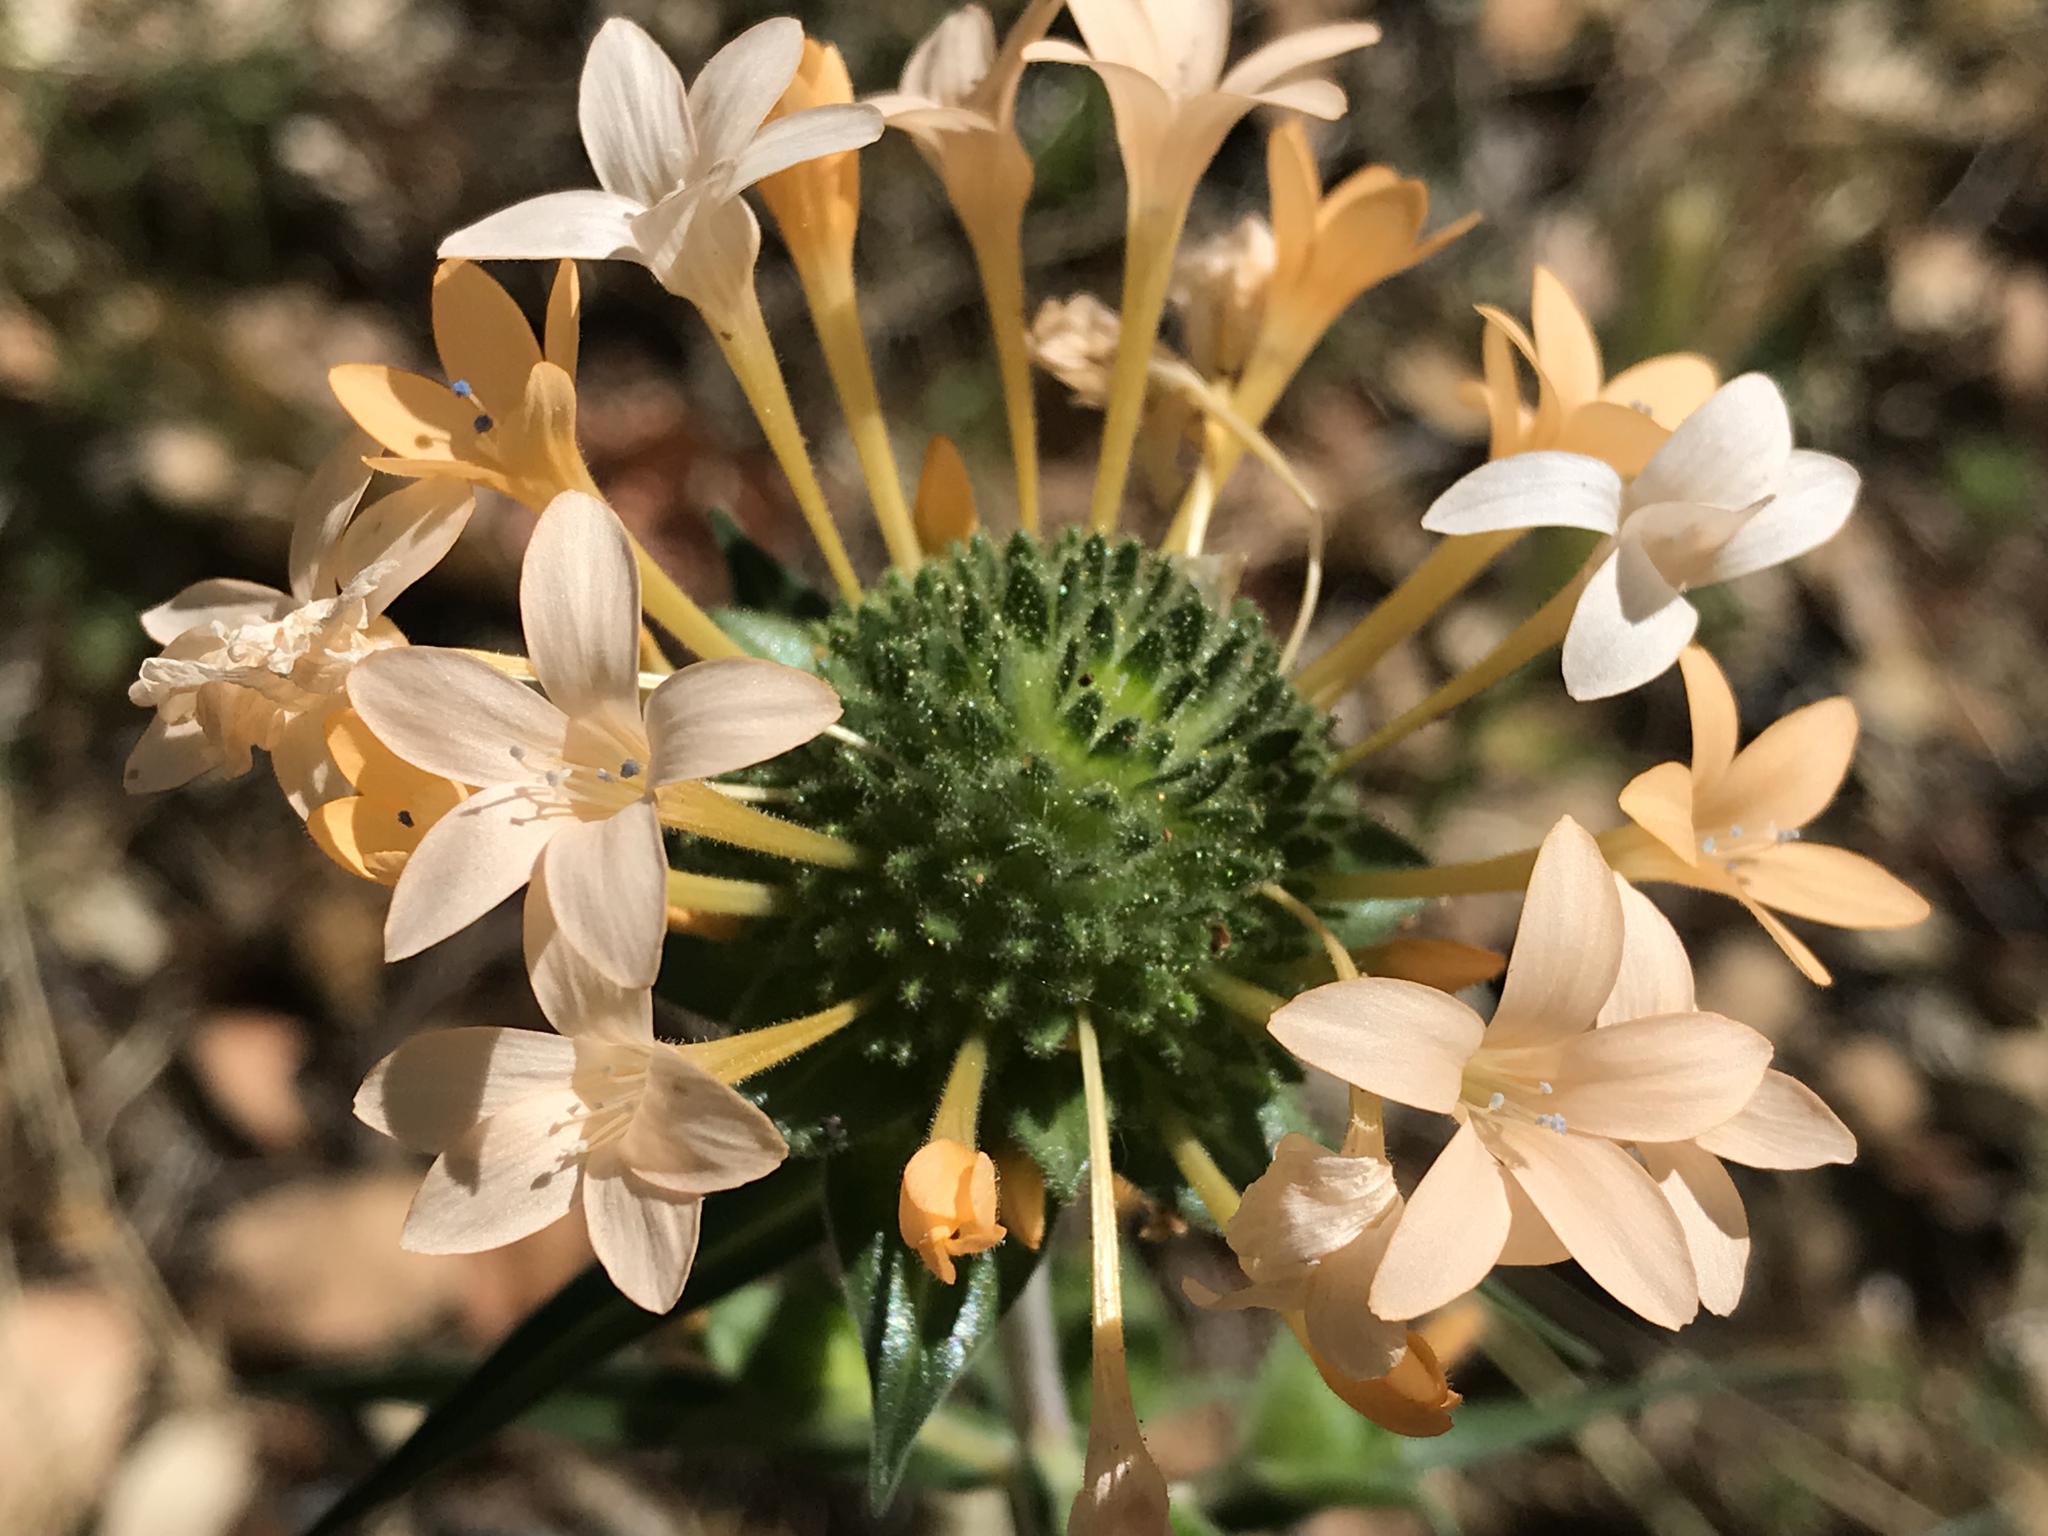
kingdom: Plantae
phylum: Tracheophyta
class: Magnoliopsida
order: Ericales
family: Polemoniaceae
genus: Collomia
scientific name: Collomia grandiflora
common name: California strawflower
